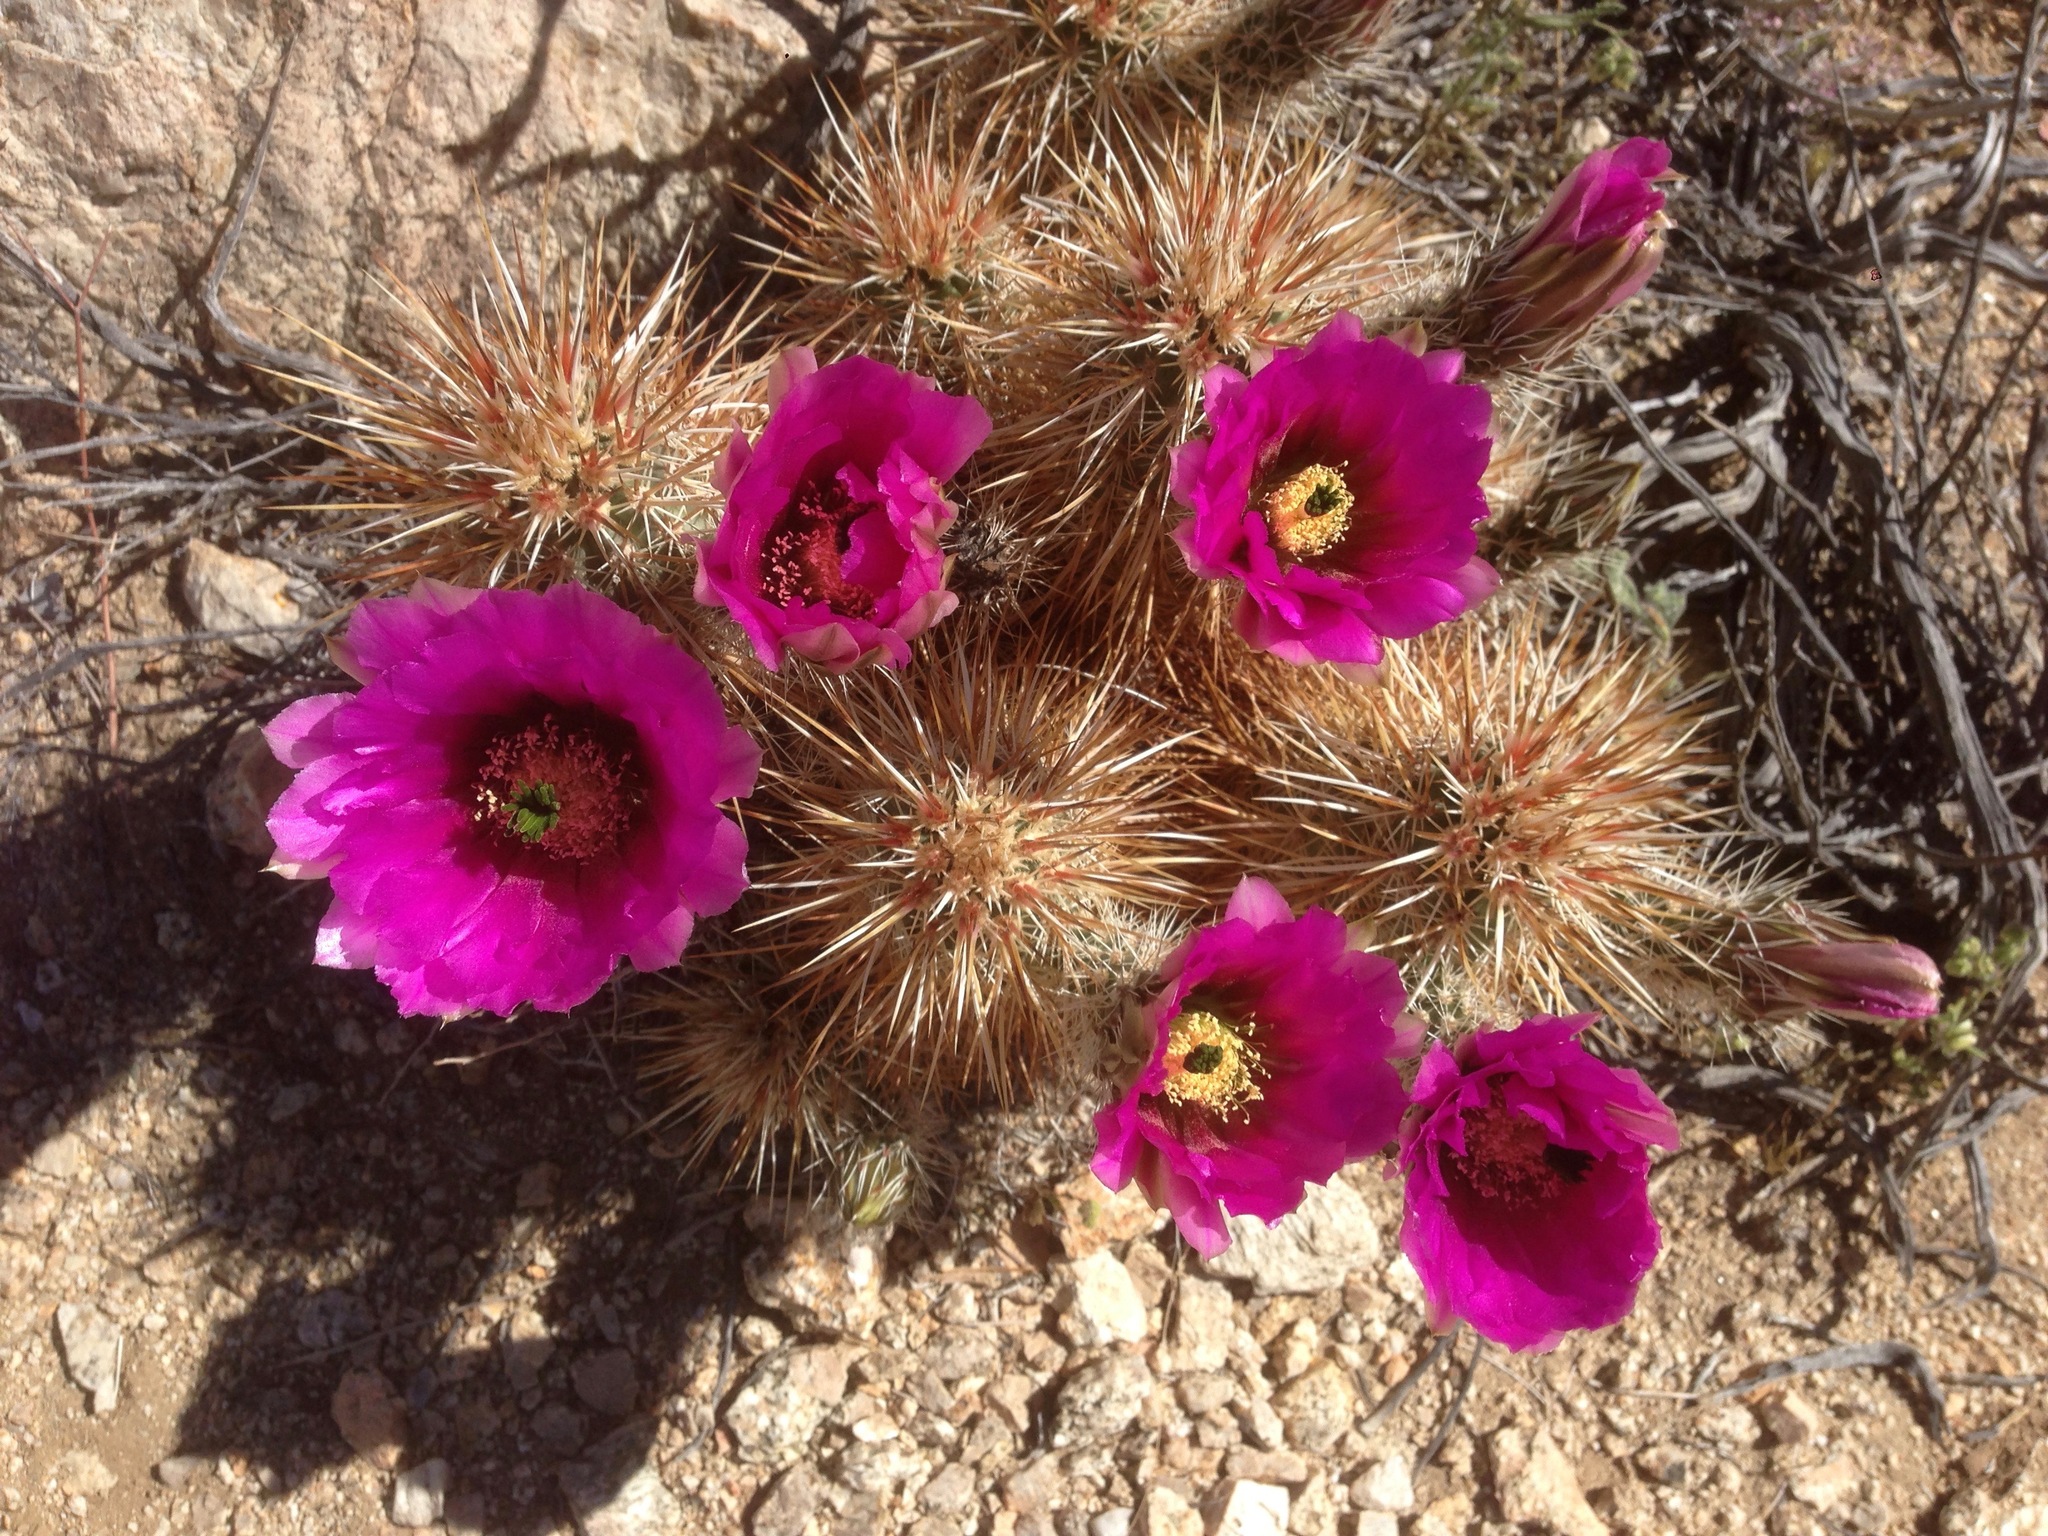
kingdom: Plantae
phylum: Tracheophyta
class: Magnoliopsida
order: Caryophyllales
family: Cactaceae
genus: Echinocereus
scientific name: Echinocereus engelmannii
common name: Engelmann's hedgehog cactus
